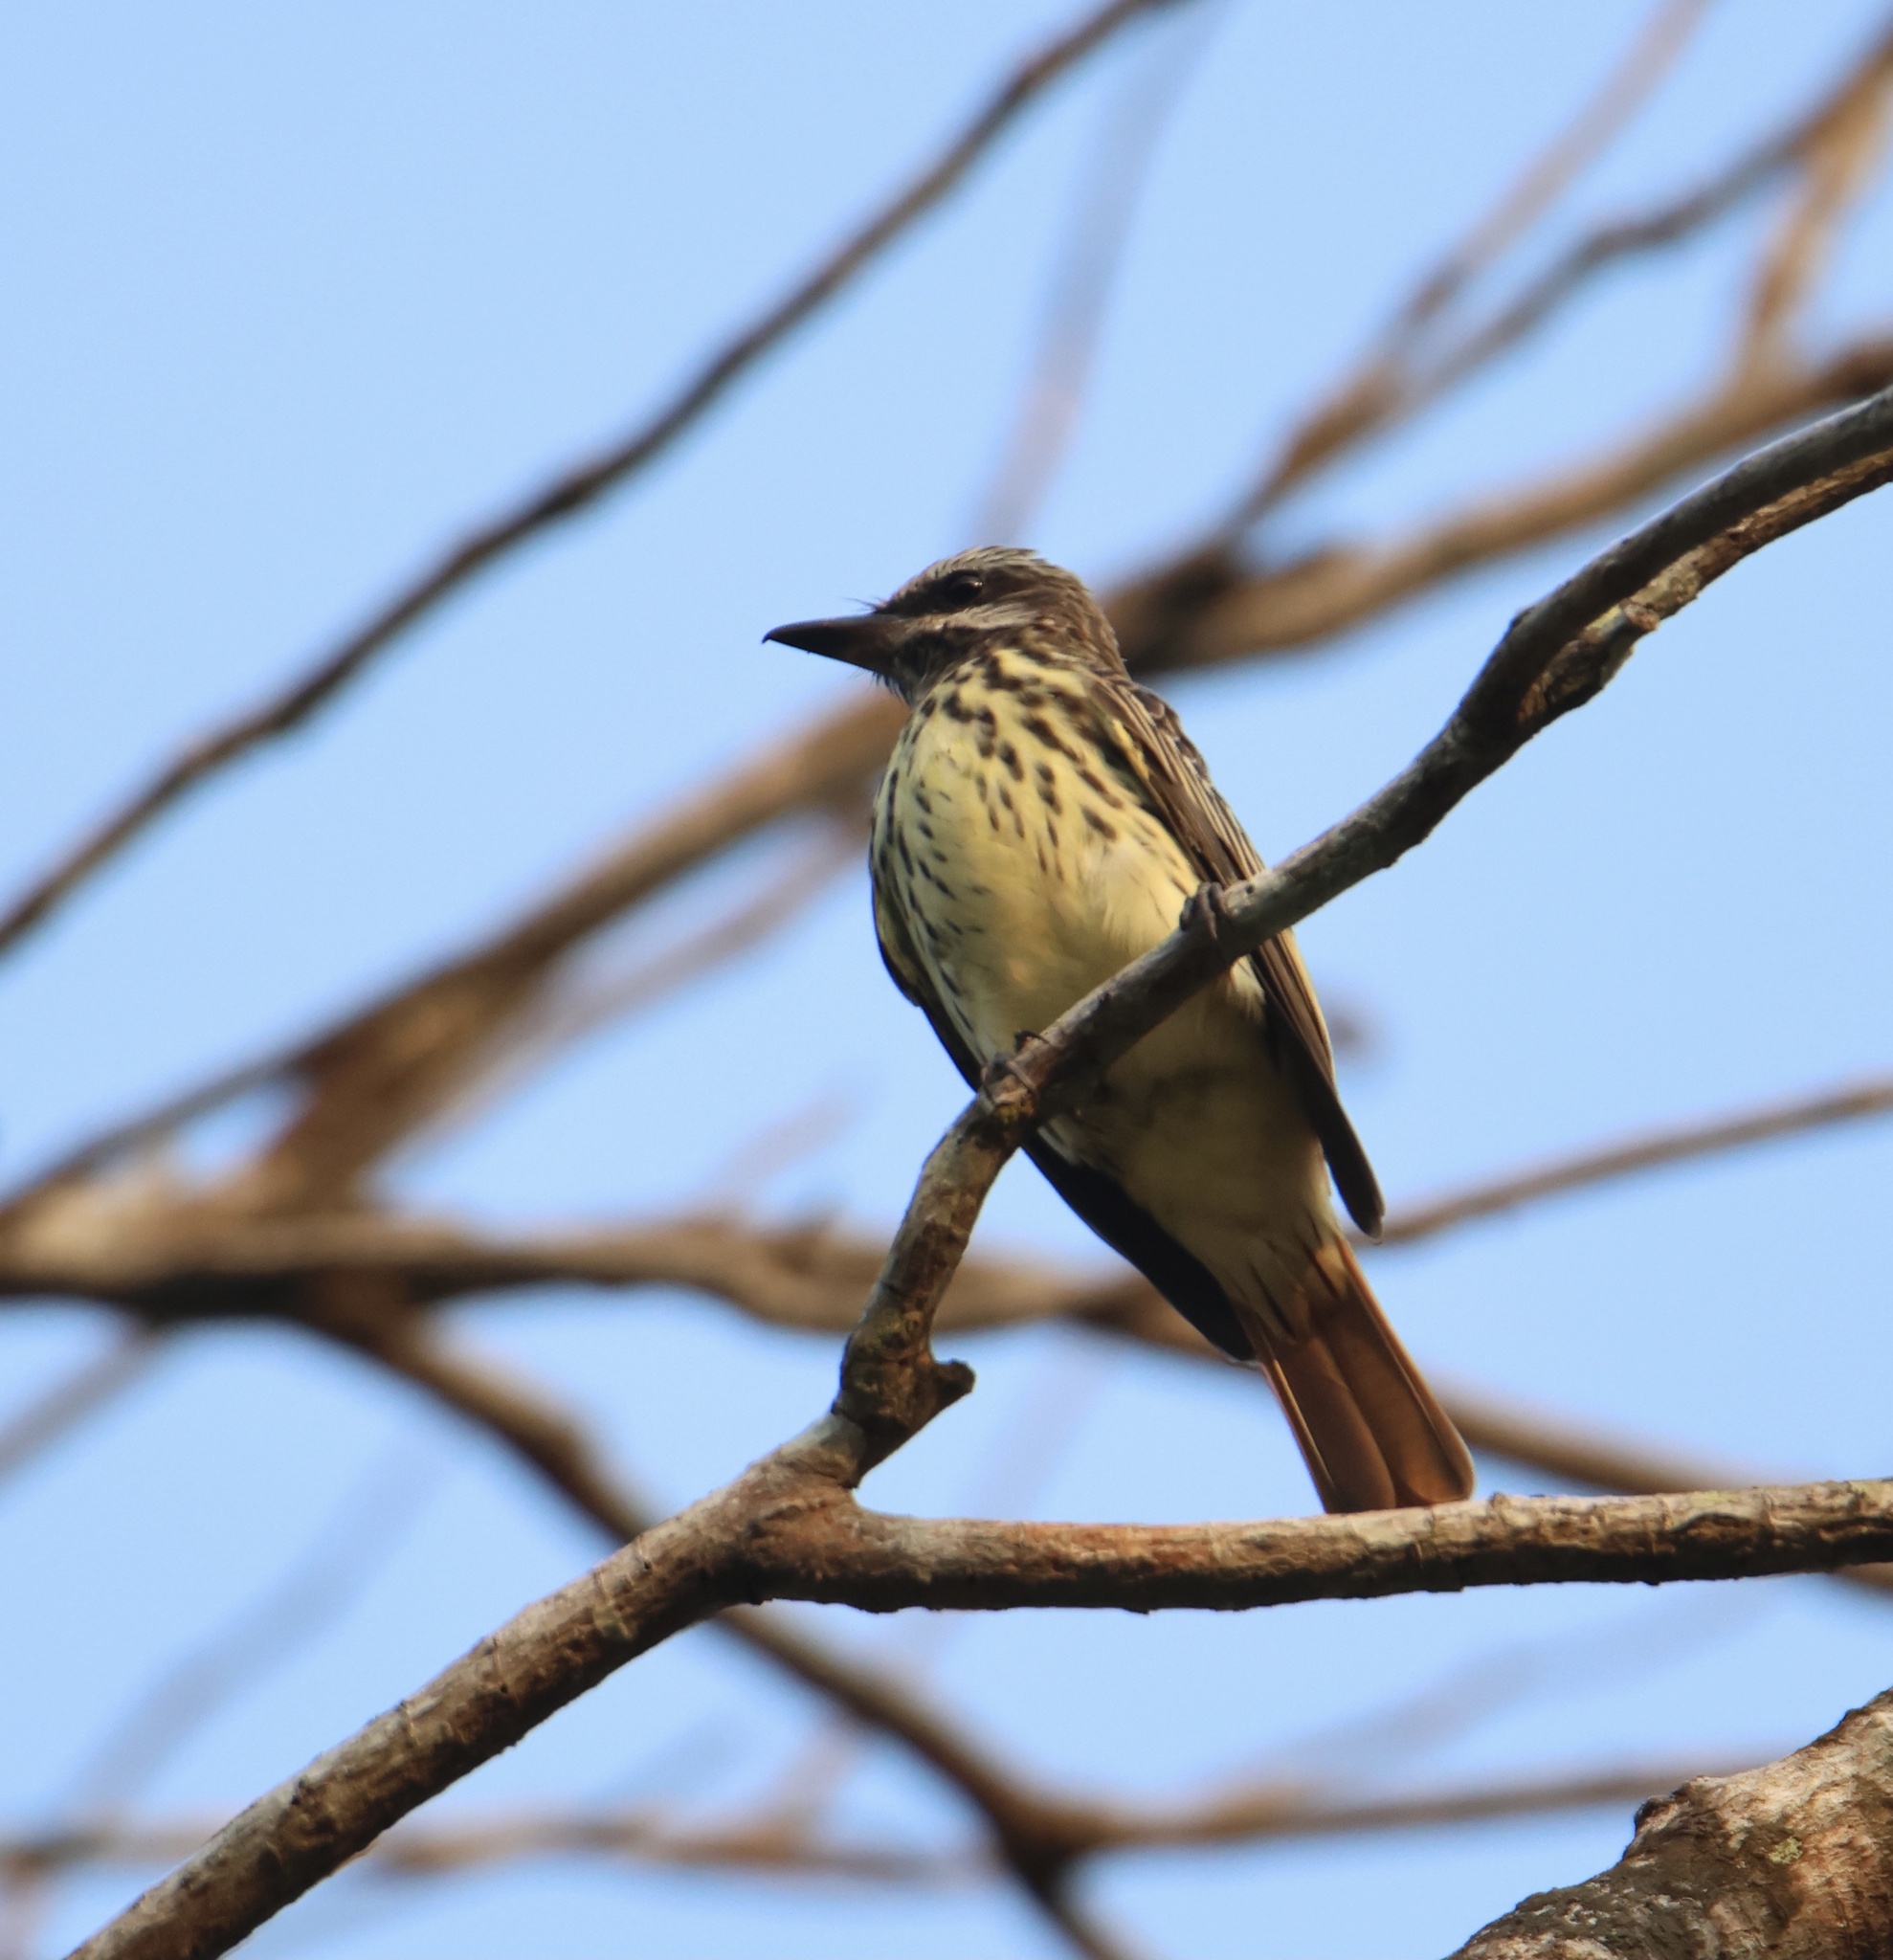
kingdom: Animalia
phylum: Chordata
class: Aves
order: Passeriformes
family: Tyrannidae
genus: Myiodynastes
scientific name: Myiodynastes luteiventris
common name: Sulphur-bellied flycatcher
